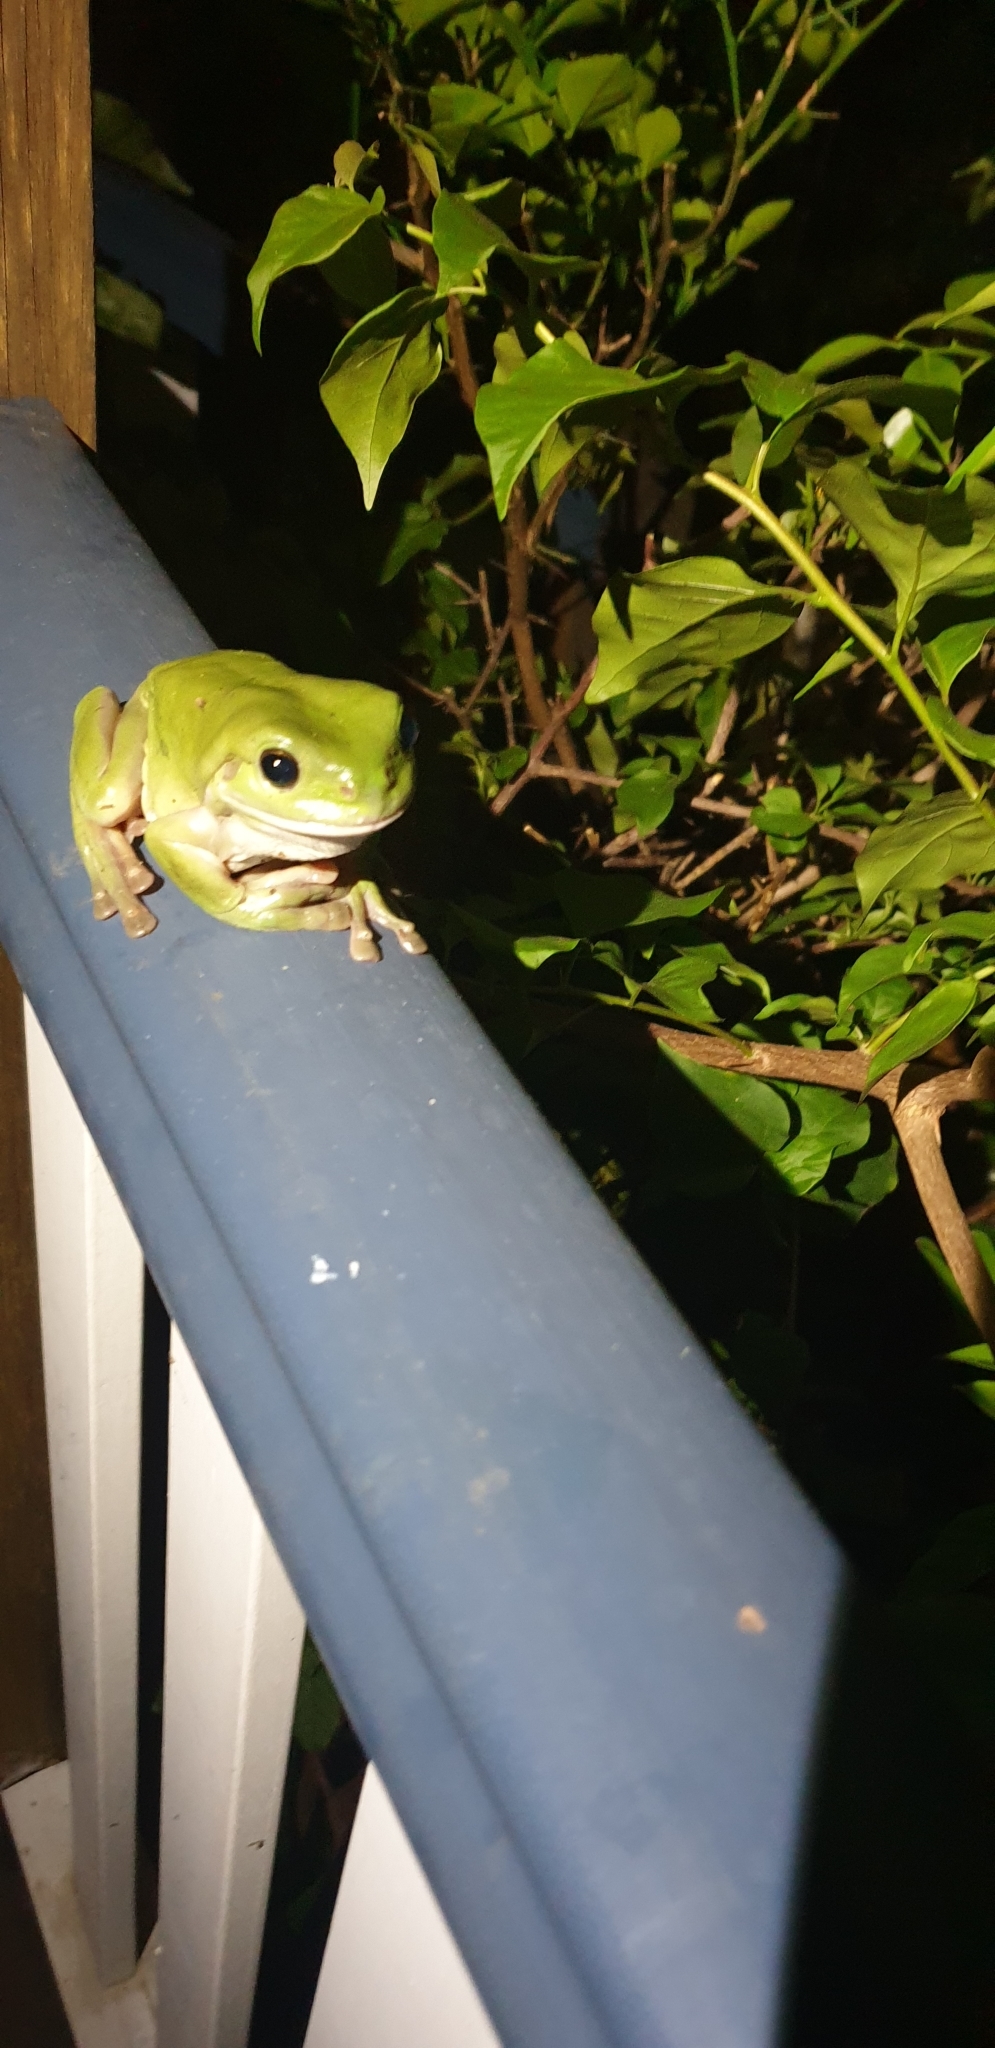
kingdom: Animalia
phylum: Chordata
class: Amphibia
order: Anura
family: Pelodryadidae
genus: Ranoidea
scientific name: Ranoidea caerulea
